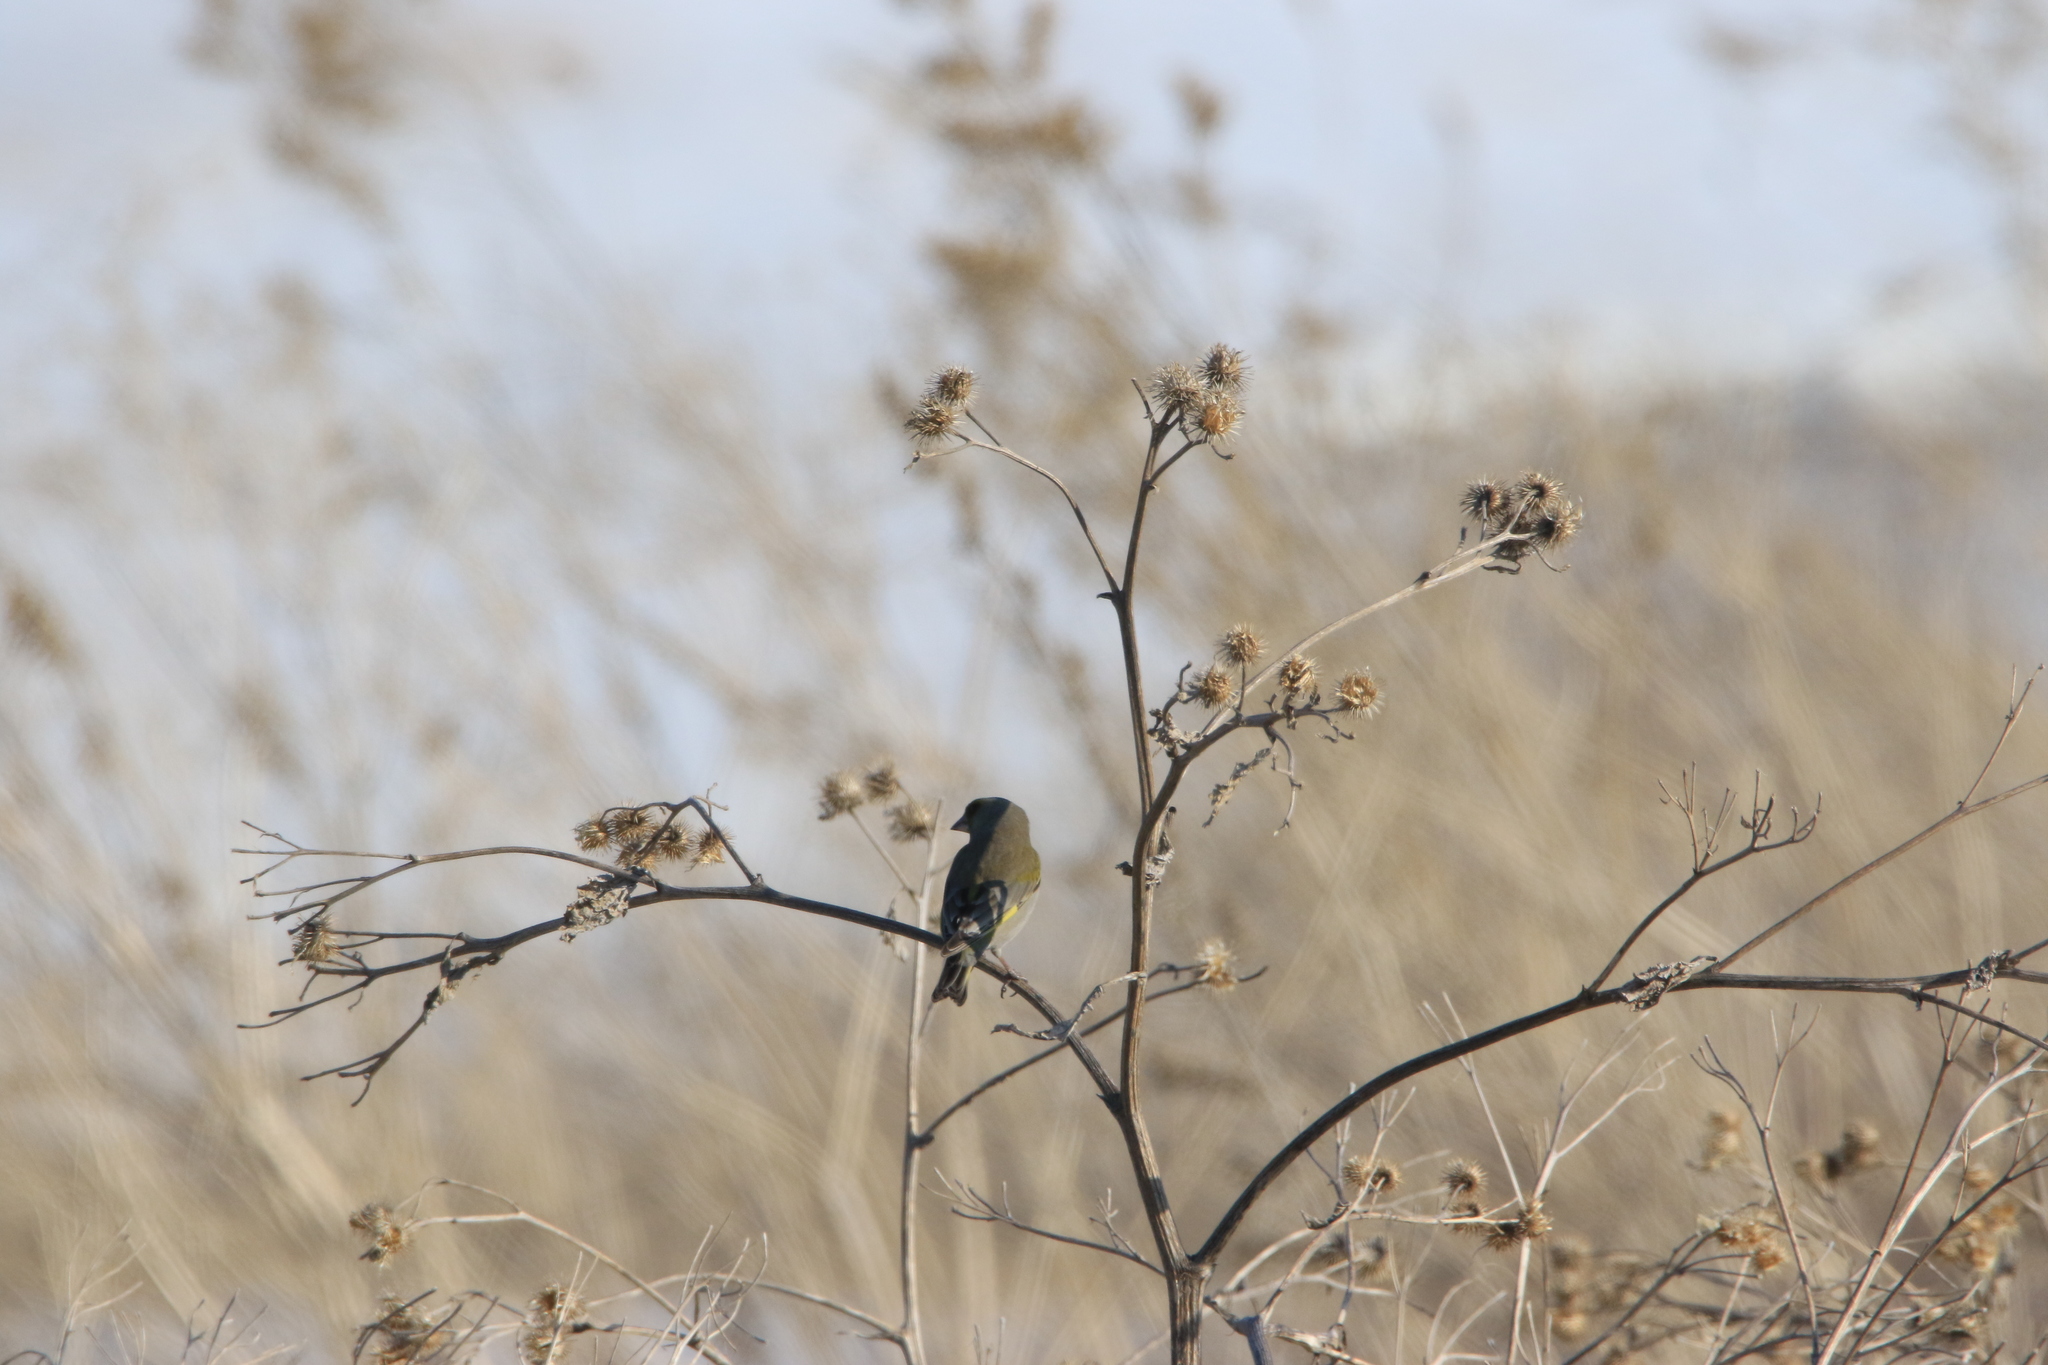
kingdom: Plantae
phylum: Tracheophyta
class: Liliopsida
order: Poales
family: Poaceae
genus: Chloris
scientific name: Chloris chloris
